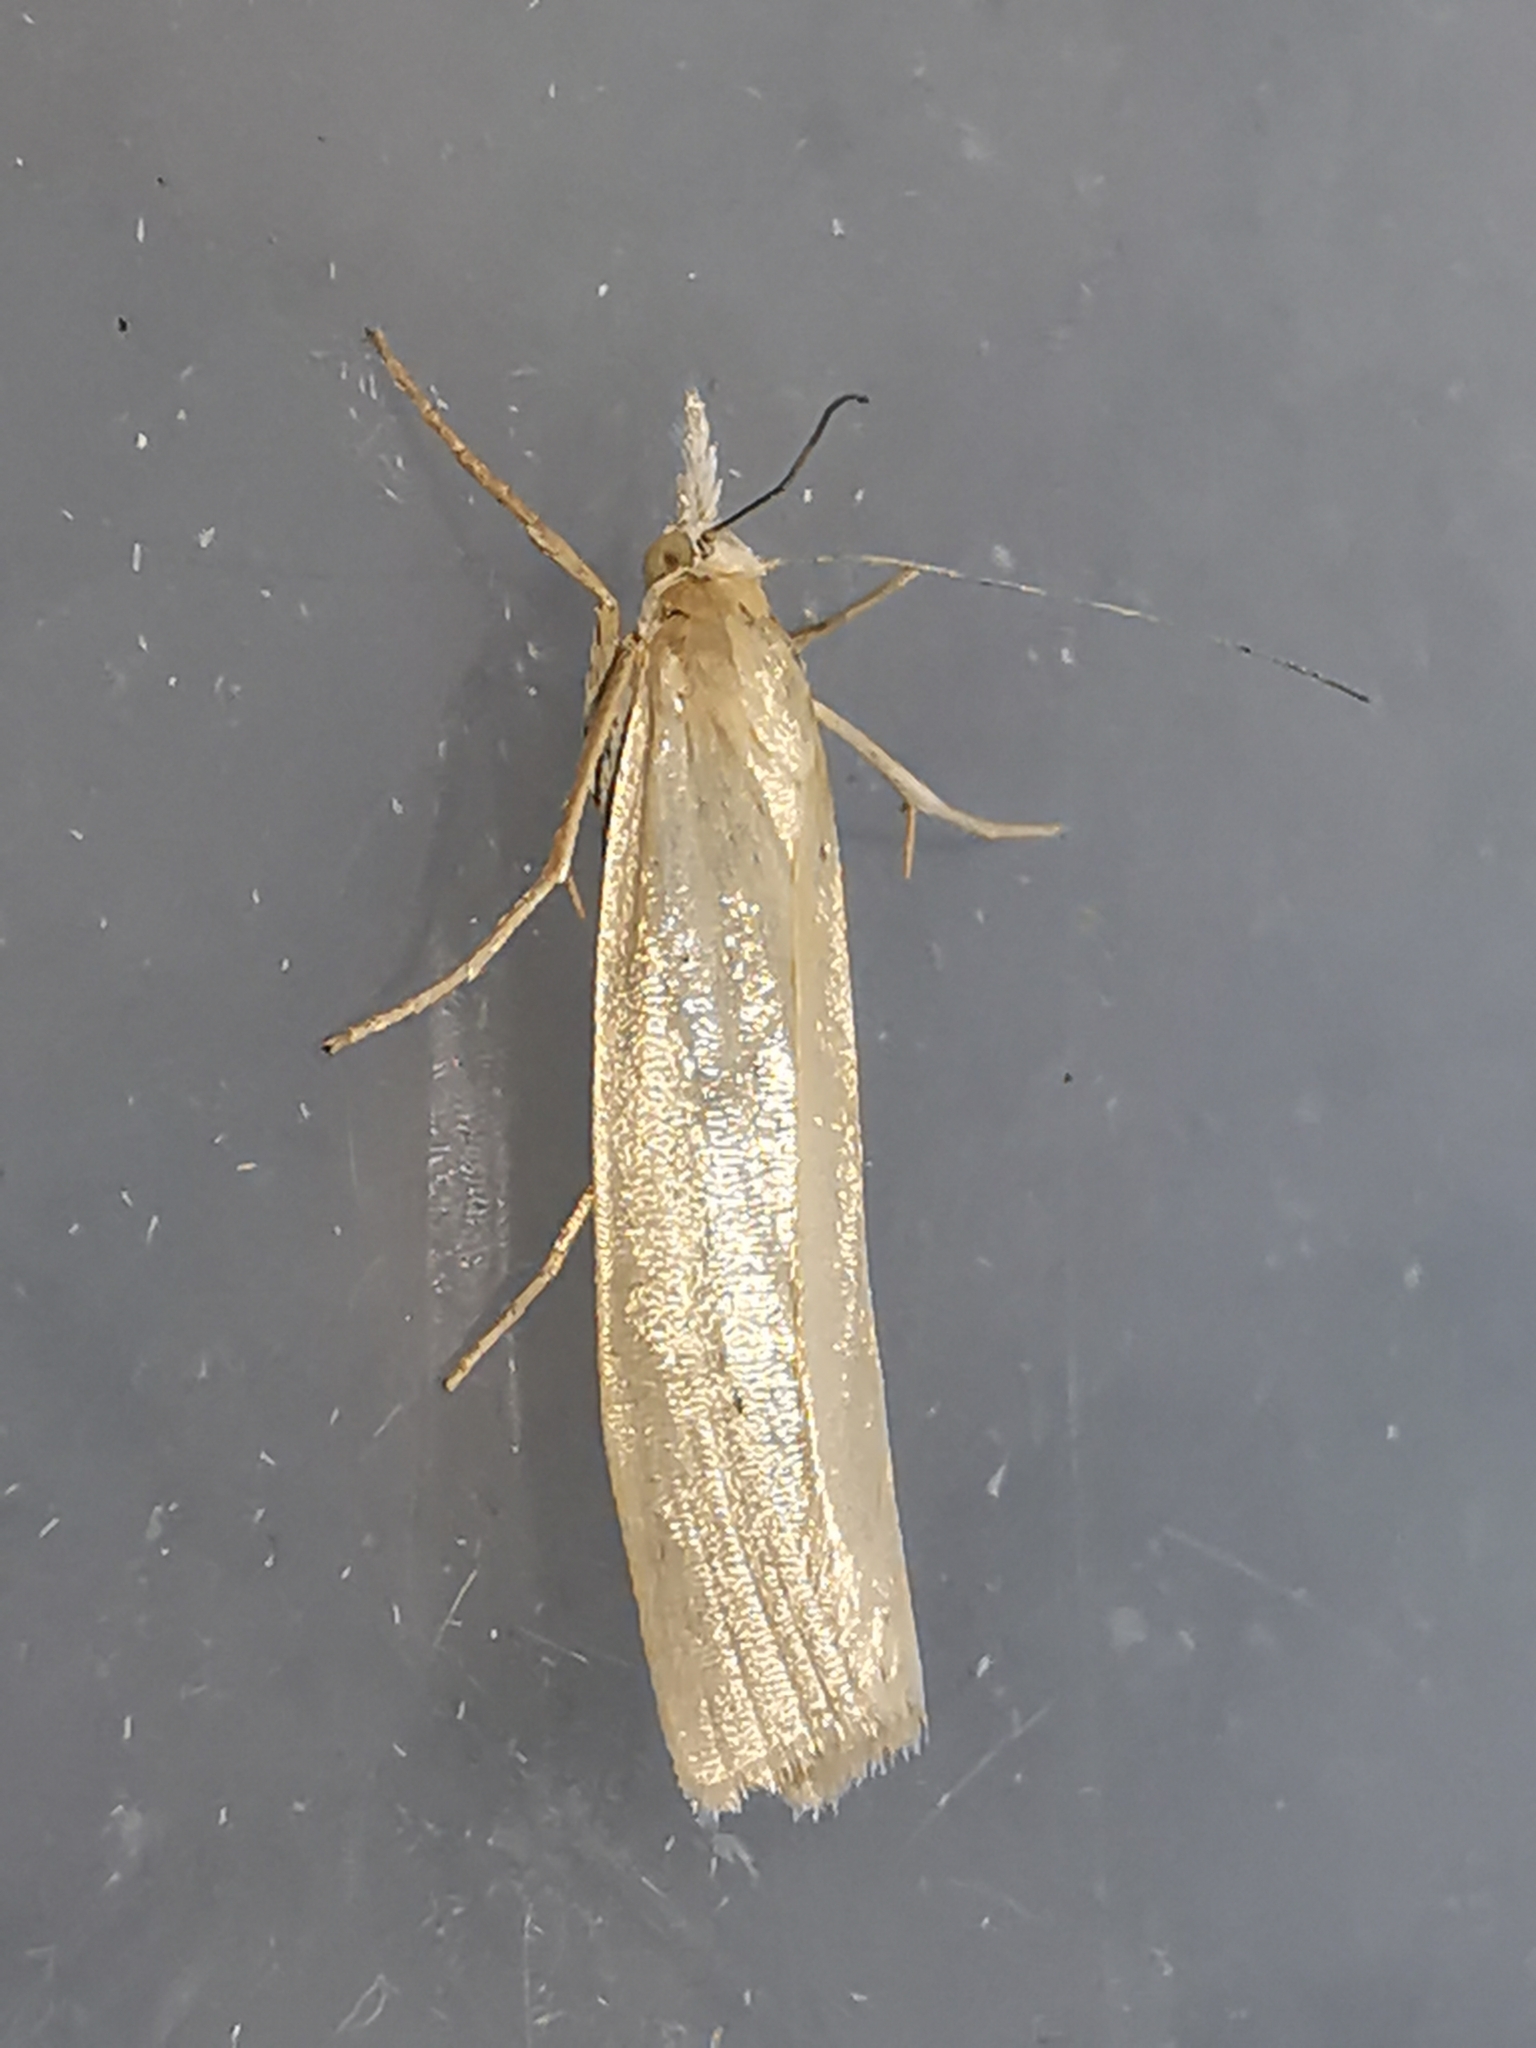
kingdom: Animalia
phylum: Arthropoda
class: Insecta
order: Lepidoptera
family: Crambidae
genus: Crambus
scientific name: Crambus perlellus
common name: Yellow satin veneer
